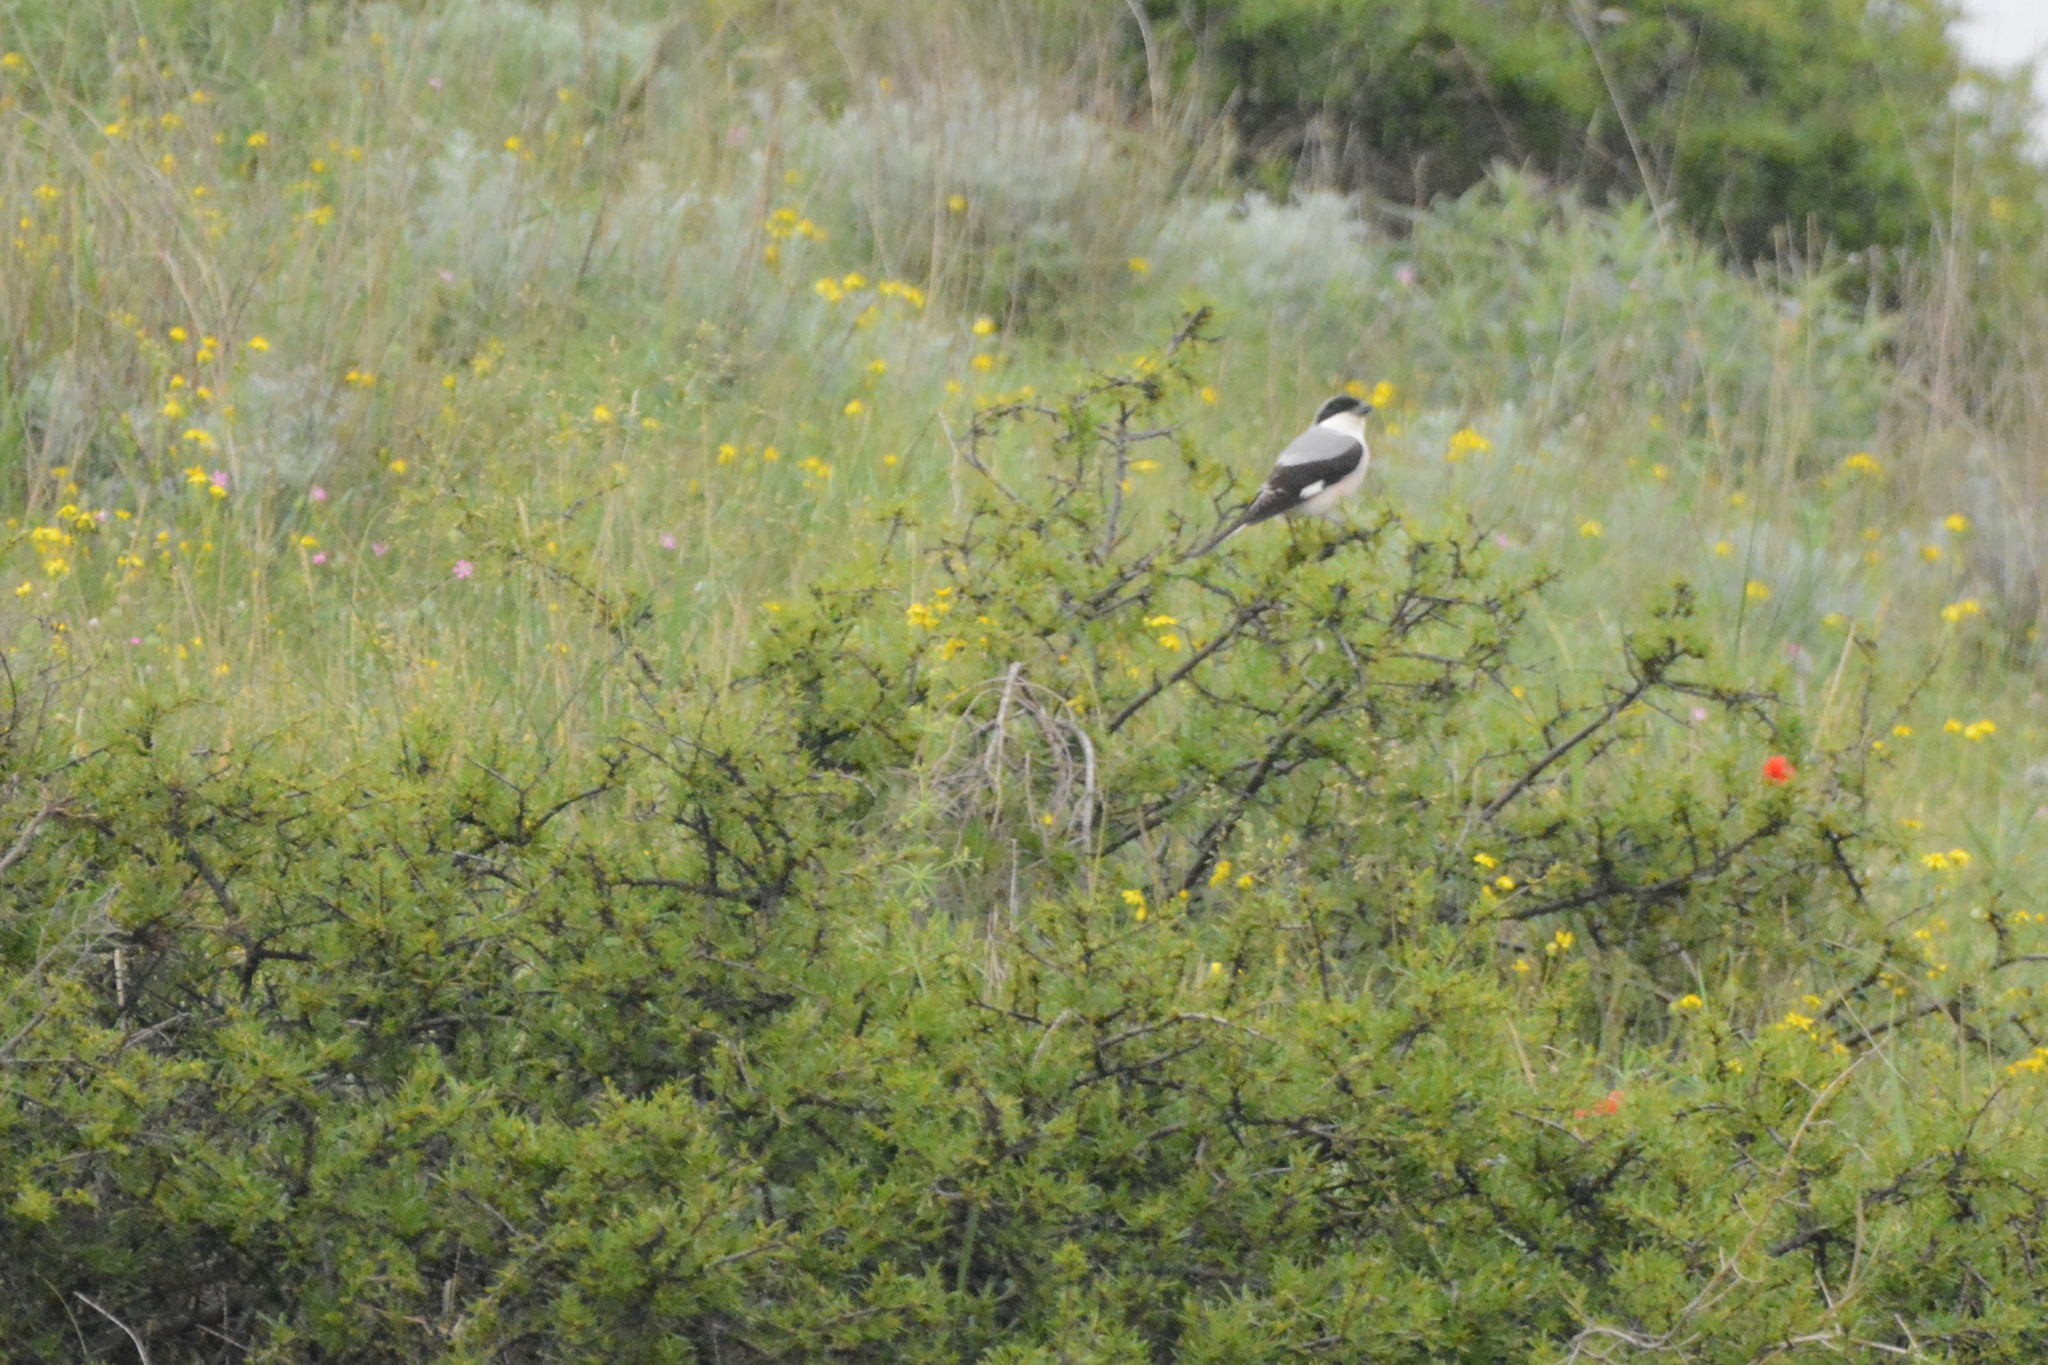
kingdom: Animalia
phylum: Chordata
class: Aves
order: Passeriformes
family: Laniidae
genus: Lanius
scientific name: Lanius minor
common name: Lesser grey shrike
